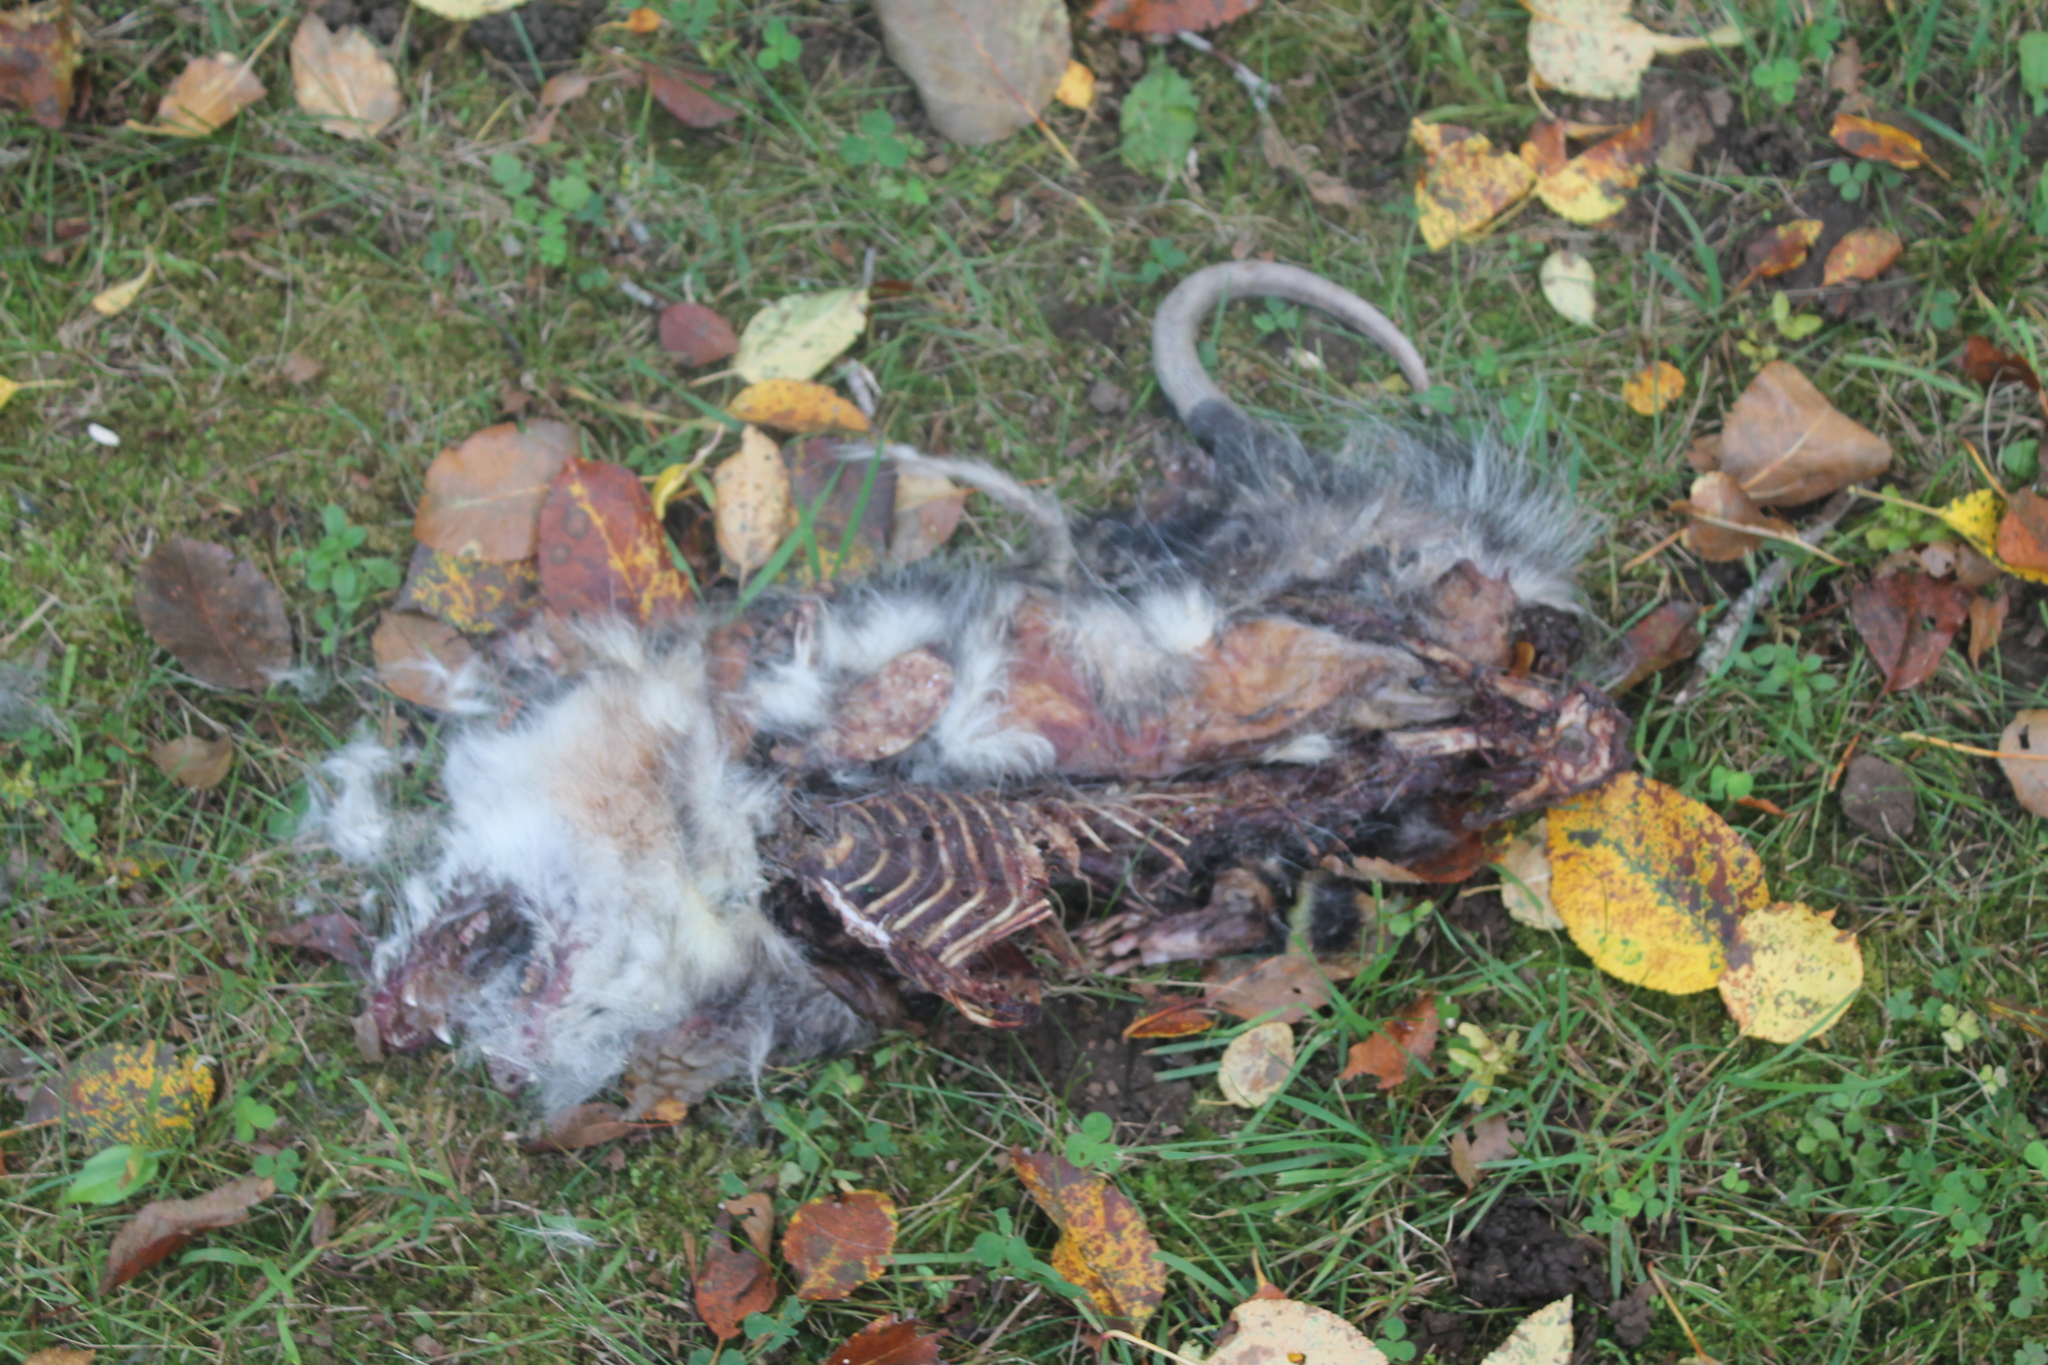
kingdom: Animalia
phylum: Chordata
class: Mammalia
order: Didelphimorphia
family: Didelphidae
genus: Didelphis
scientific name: Didelphis virginiana
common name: Virginia opossum
